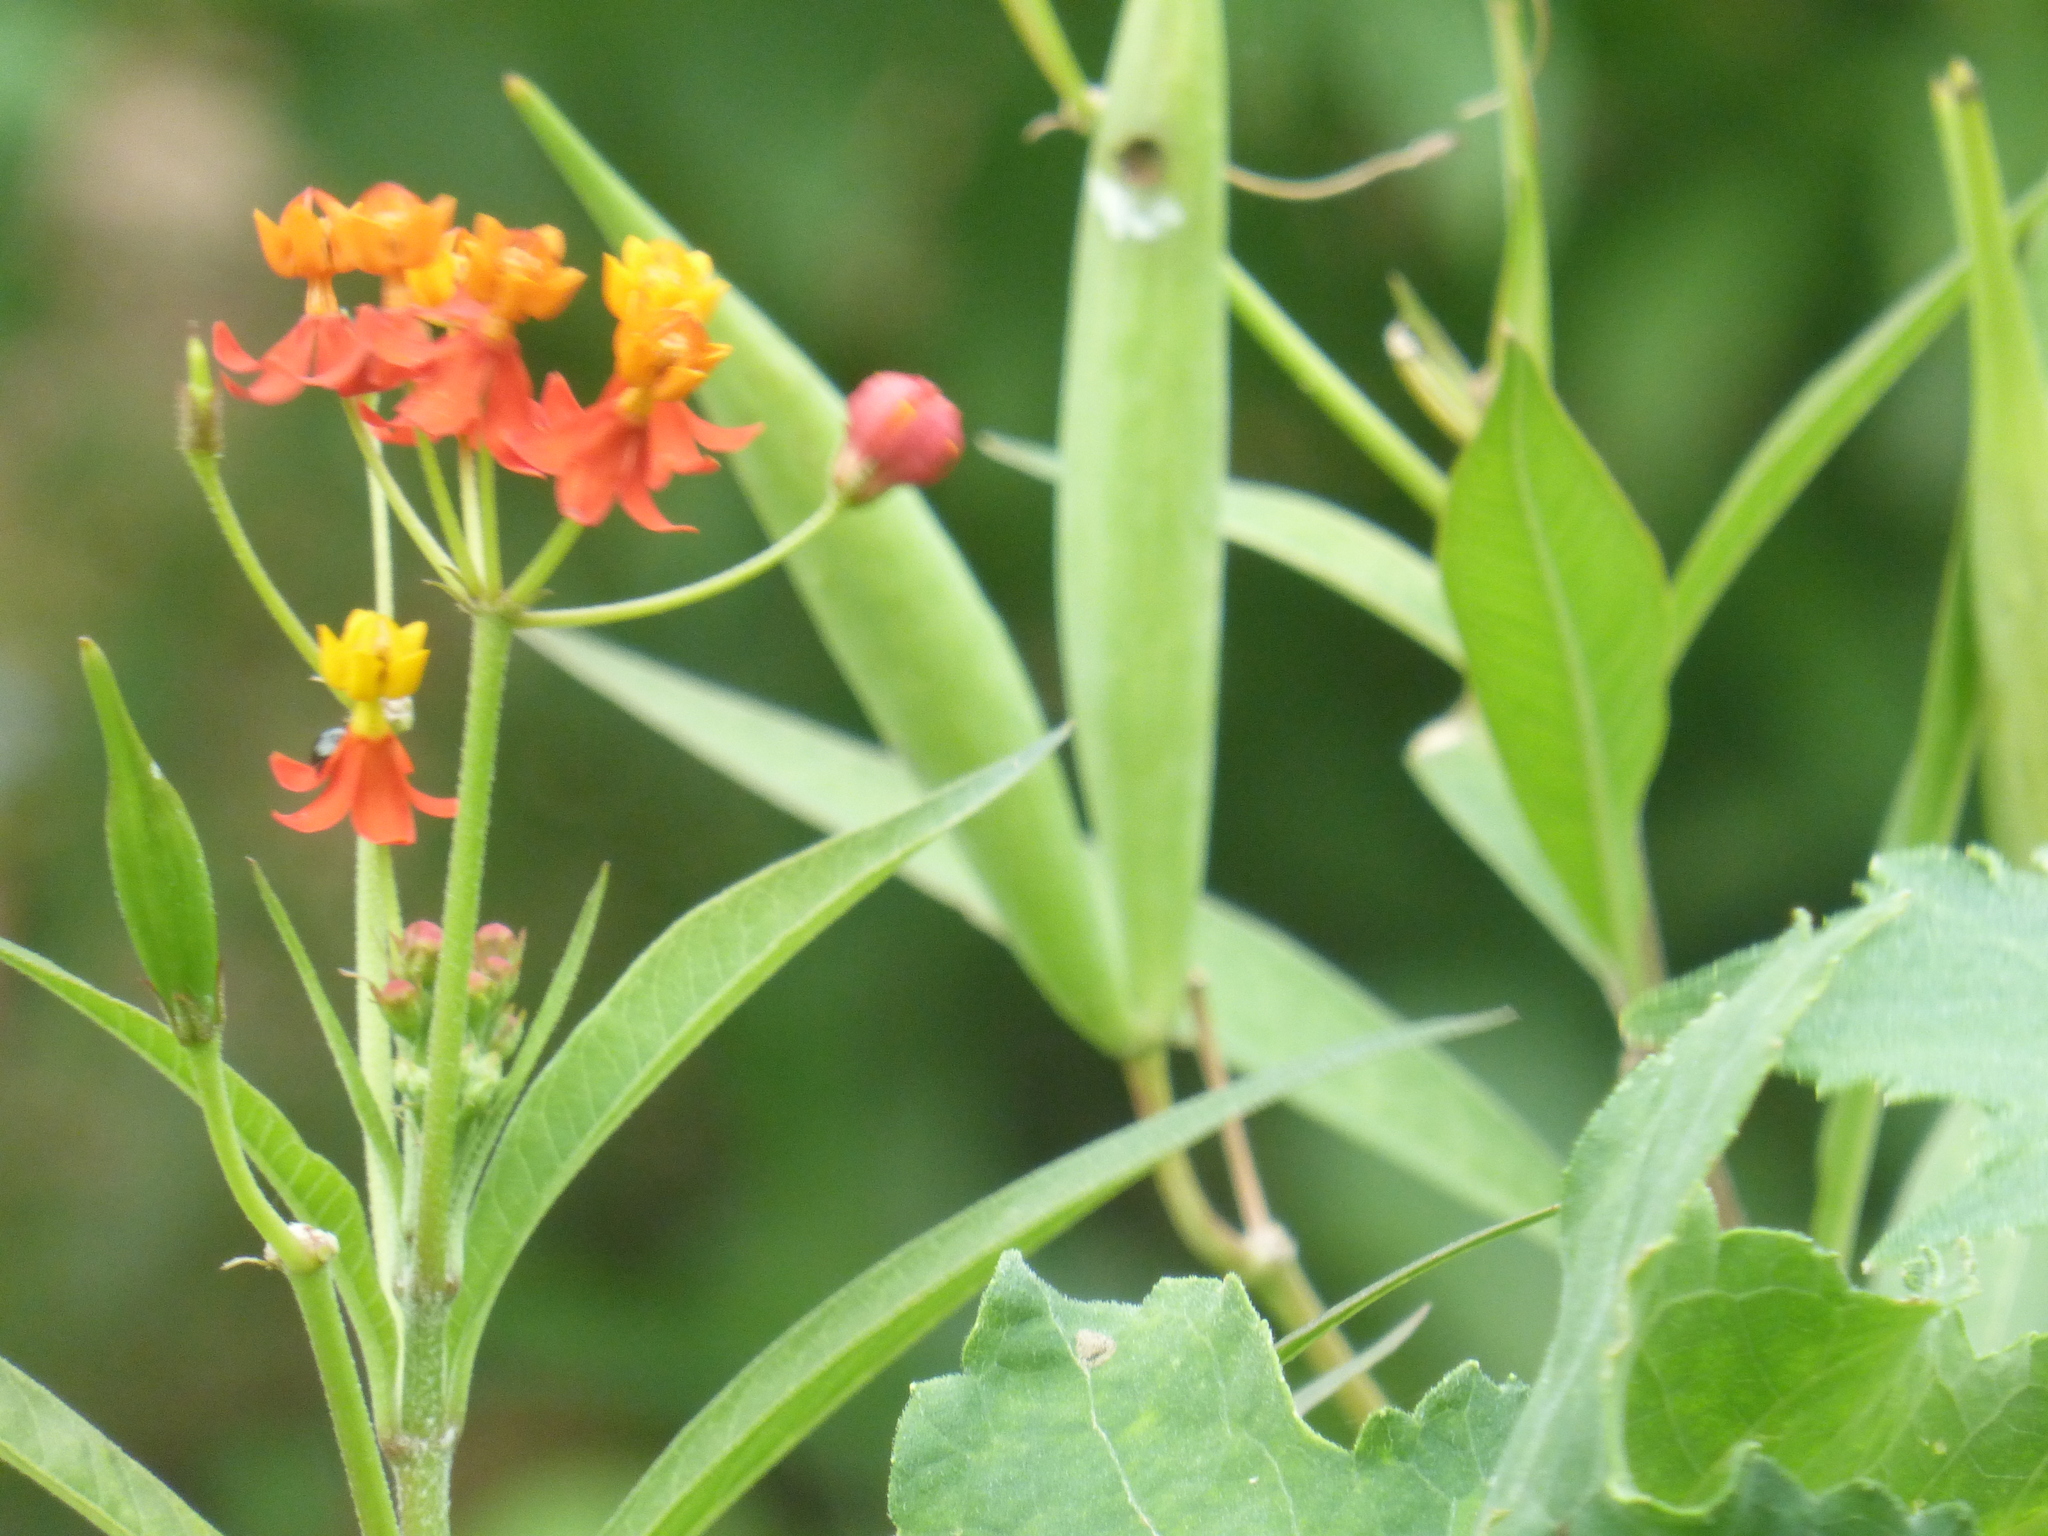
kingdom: Plantae
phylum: Tracheophyta
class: Magnoliopsida
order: Gentianales
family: Apocynaceae
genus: Asclepias
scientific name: Asclepias curassavica
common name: Bloodflower
